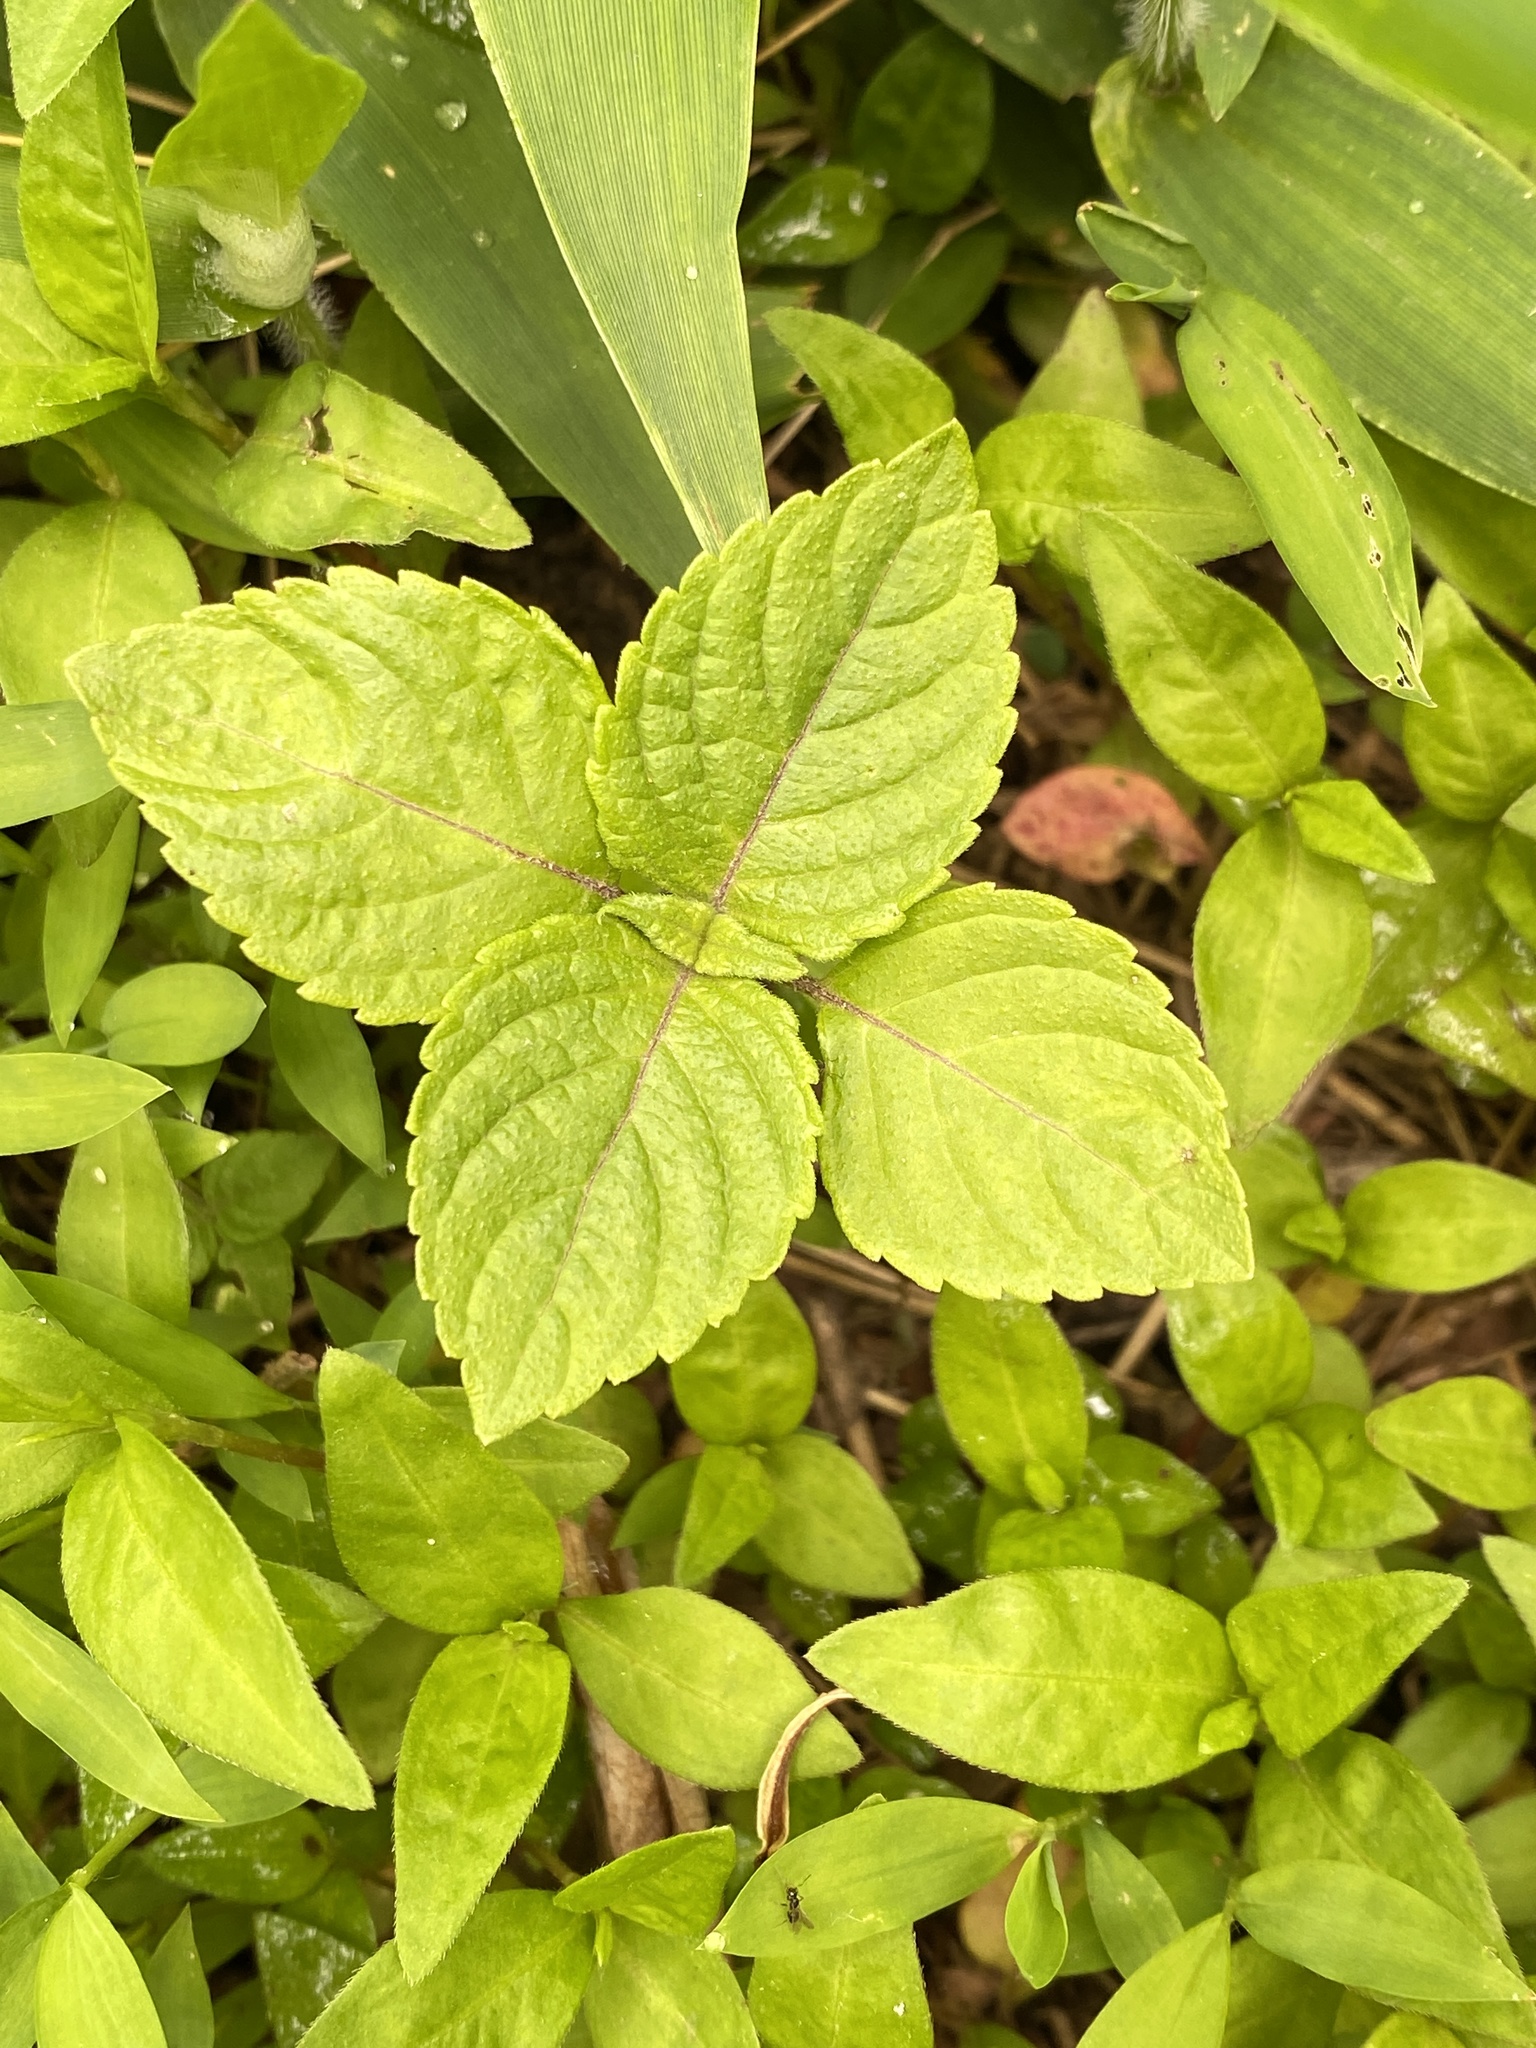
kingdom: Plantae
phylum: Tracheophyta
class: Magnoliopsida
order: Lamiales
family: Lamiaceae
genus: Perilla
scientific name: Perilla frutescens
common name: Perilla
